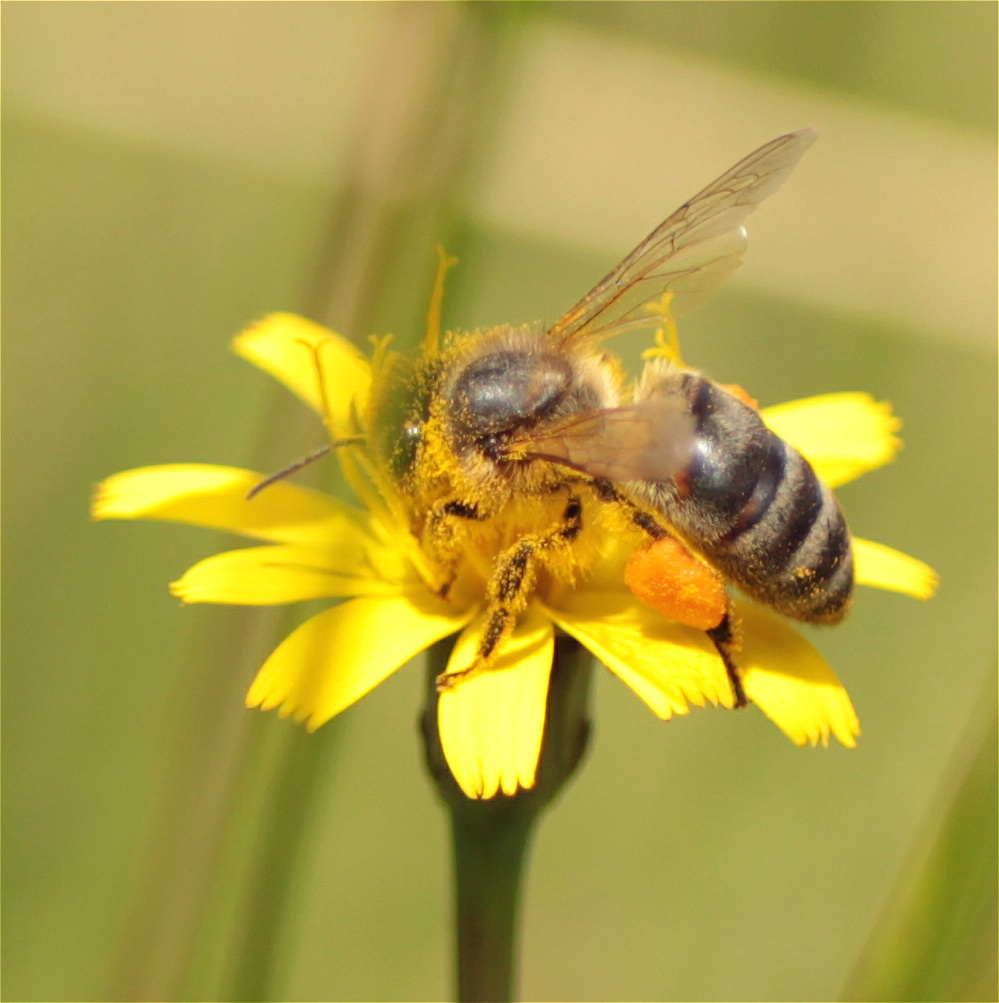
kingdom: Animalia
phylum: Arthropoda
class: Insecta
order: Hymenoptera
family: Apidae
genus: Apis
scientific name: Apis mellifera
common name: Honey bee
